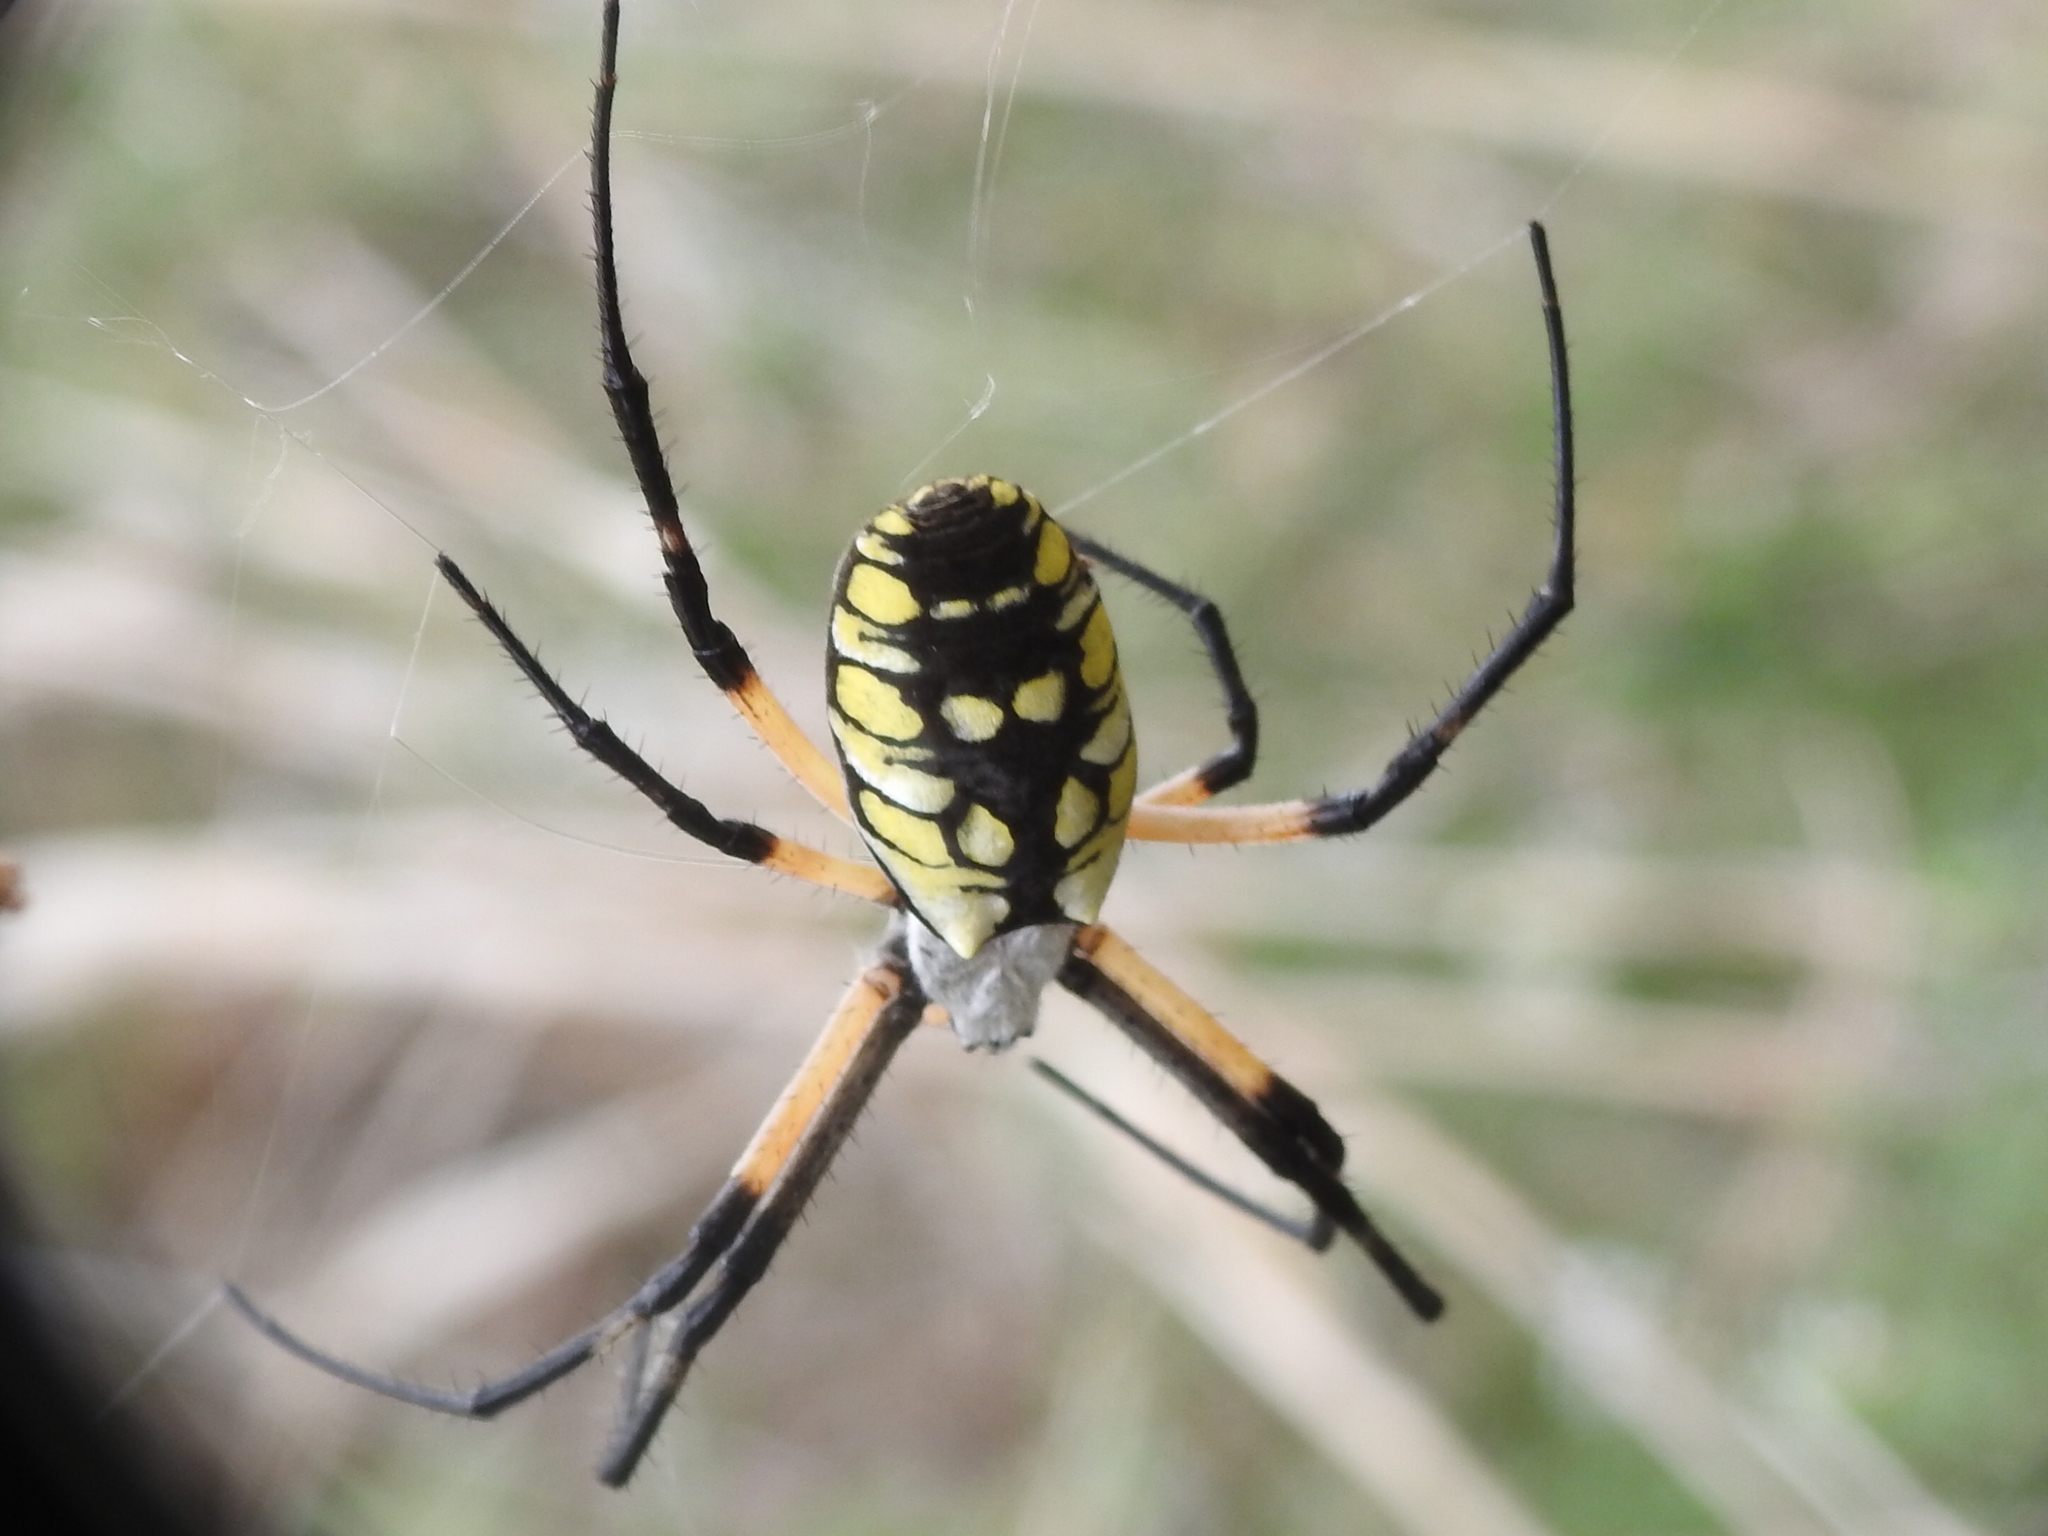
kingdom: Animalia
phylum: Arthropoda
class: Arachnida
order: Araneae
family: Araneidae
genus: Argiope
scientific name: Argiope aurantia
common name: Orb weavers
